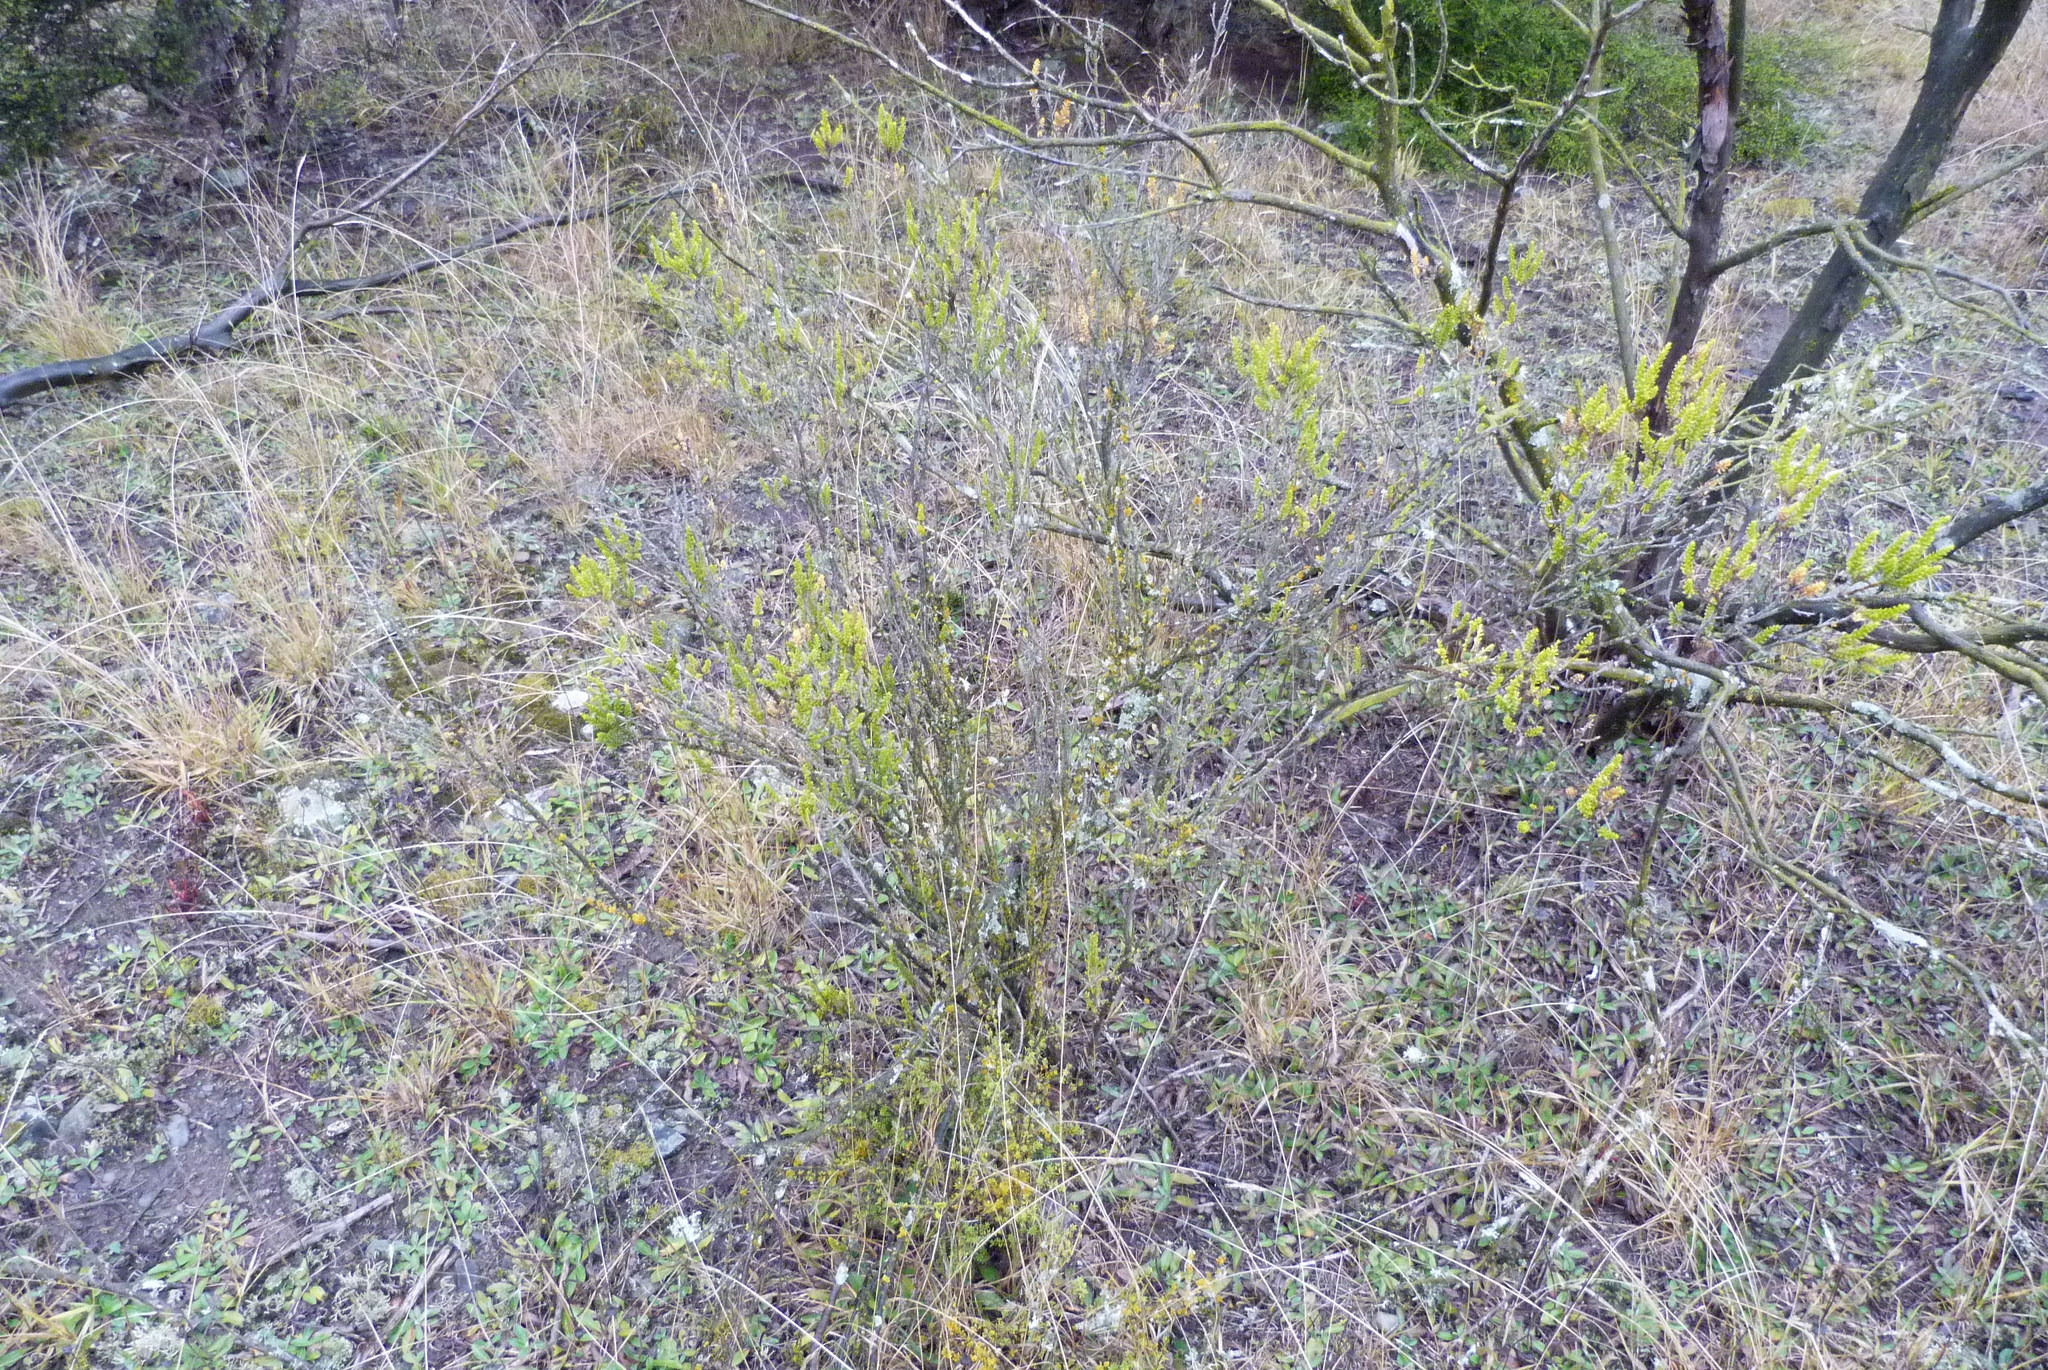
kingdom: Plantae
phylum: Tracheophyta
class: Magnoliopsida
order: Asterales
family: Asteraceae
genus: Ozothamnus
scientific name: Ozothamnus leptophyllus
